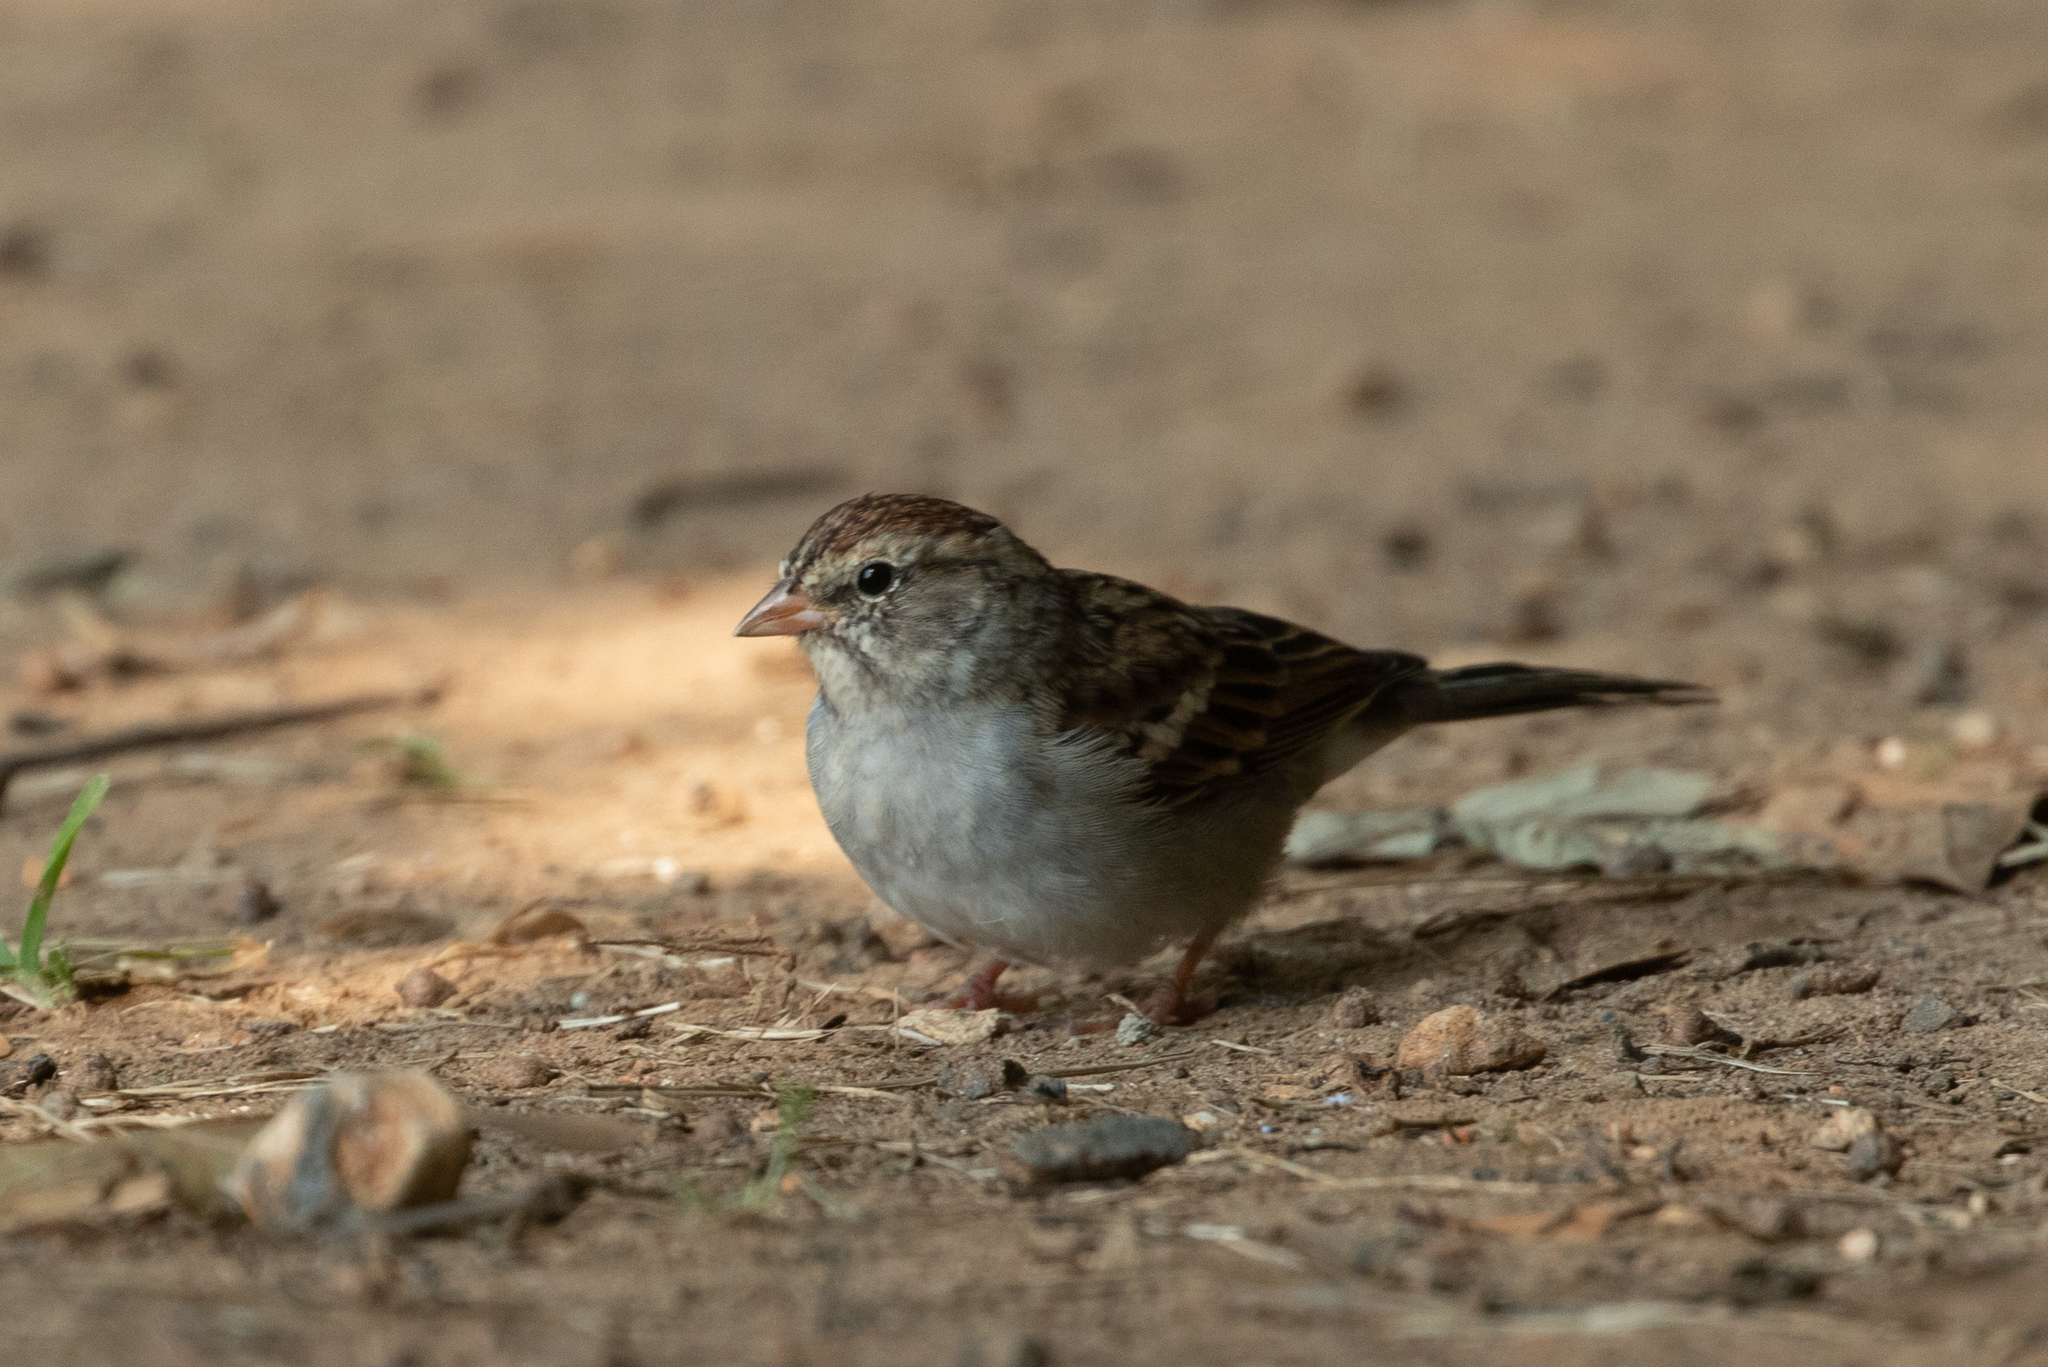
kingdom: Animalia
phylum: Chordata
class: Aves
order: Passeriformes
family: Passerellidae
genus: Spizella
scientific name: Spizella passerina
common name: Chipping sparrow
